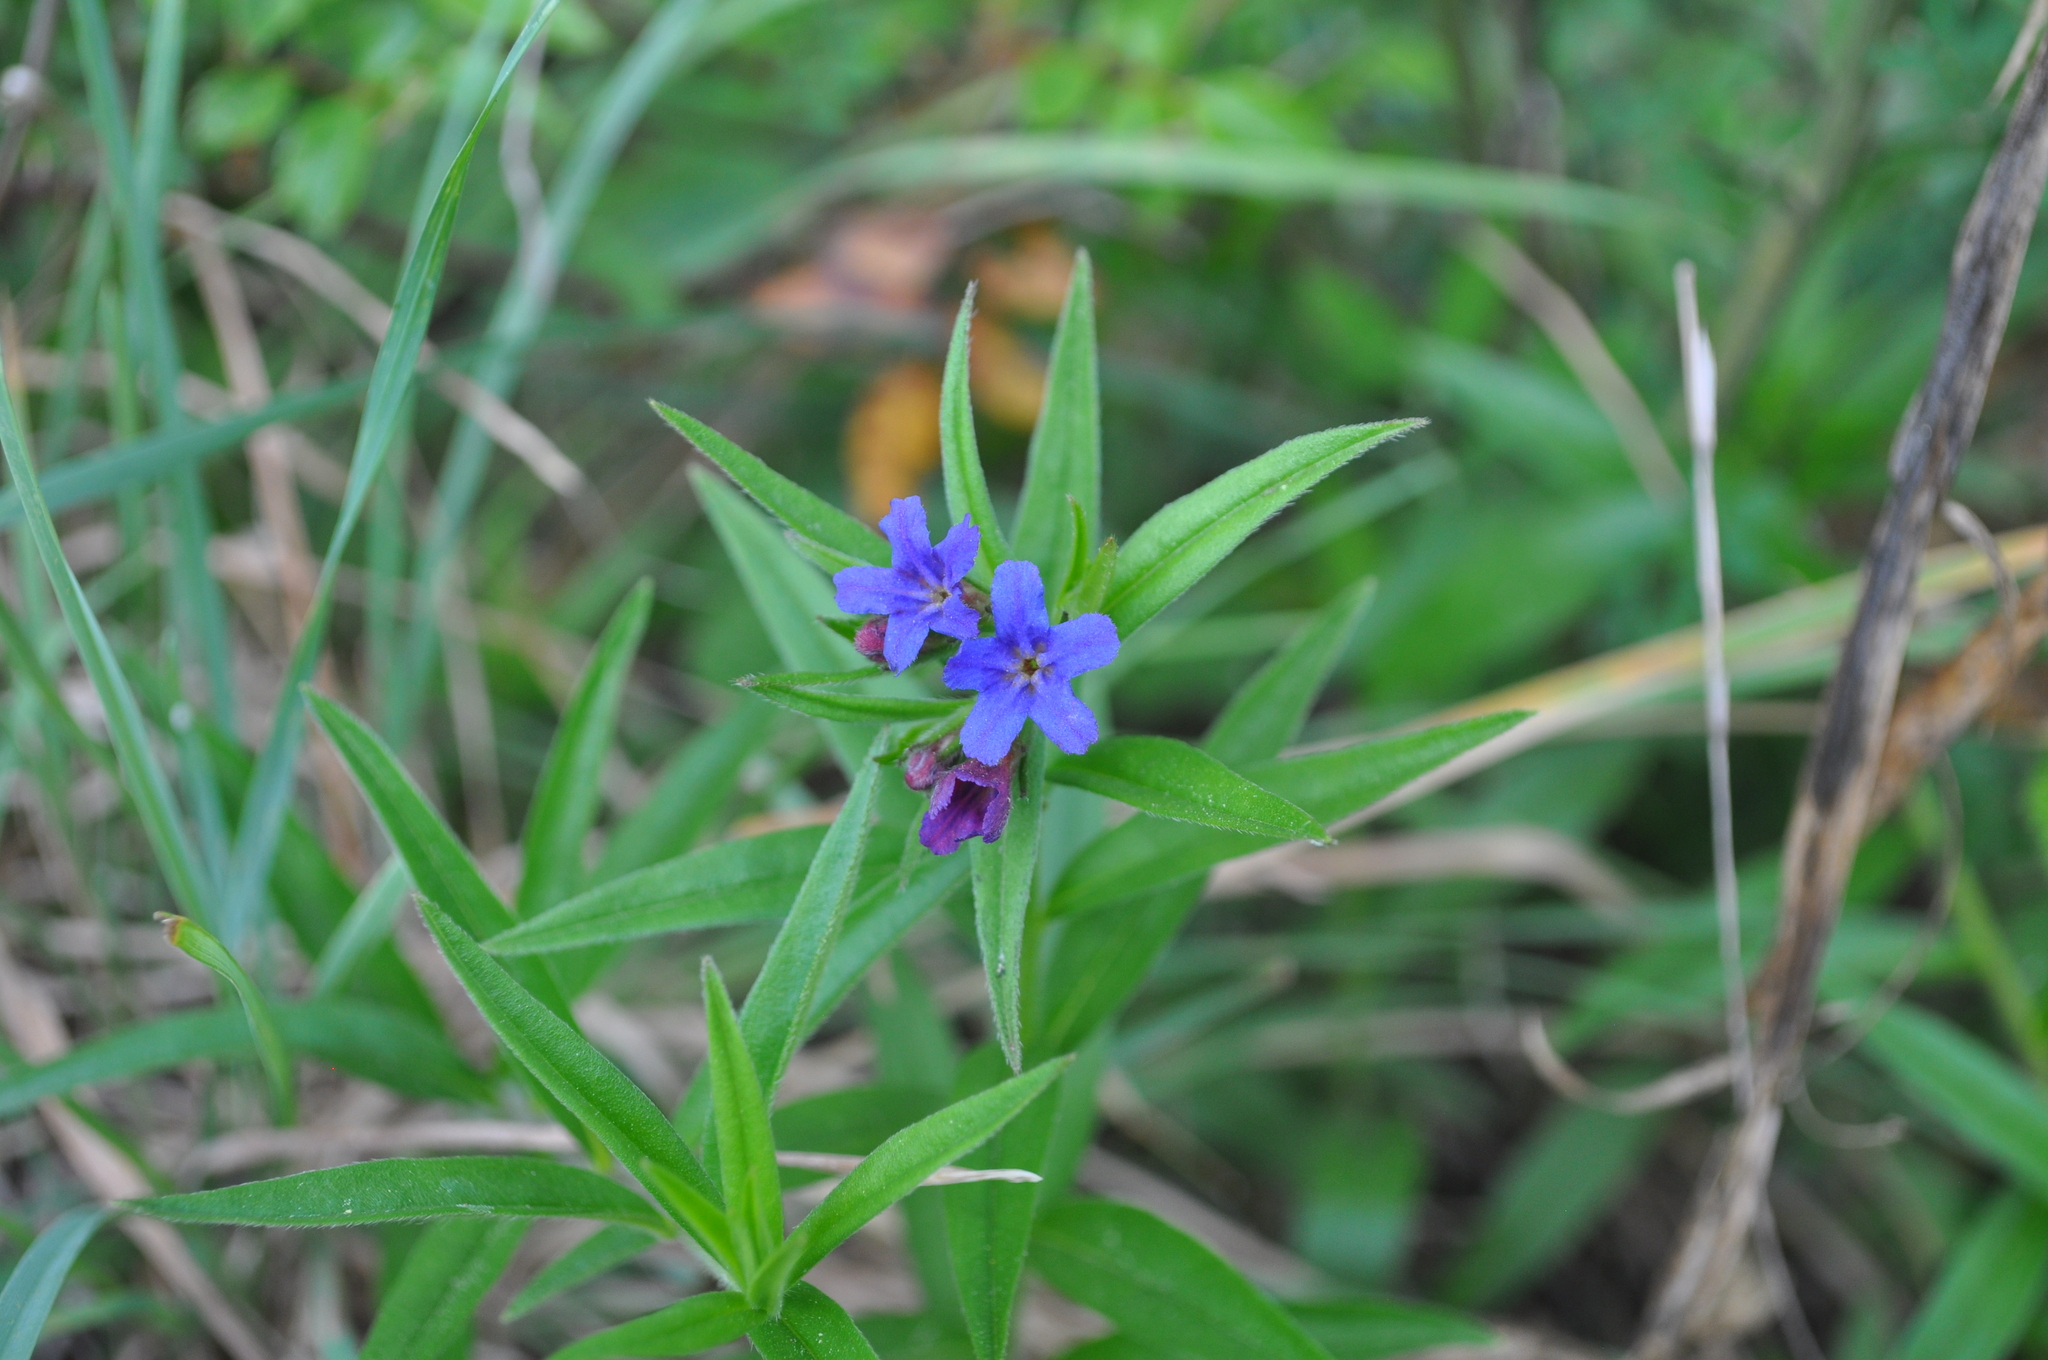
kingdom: Plantae
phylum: Tracheophyta
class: Magnoliopsida
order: Boraginales
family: Boraginaceae
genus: Aegonychon
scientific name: Aegonychon purpurocaeruleum
